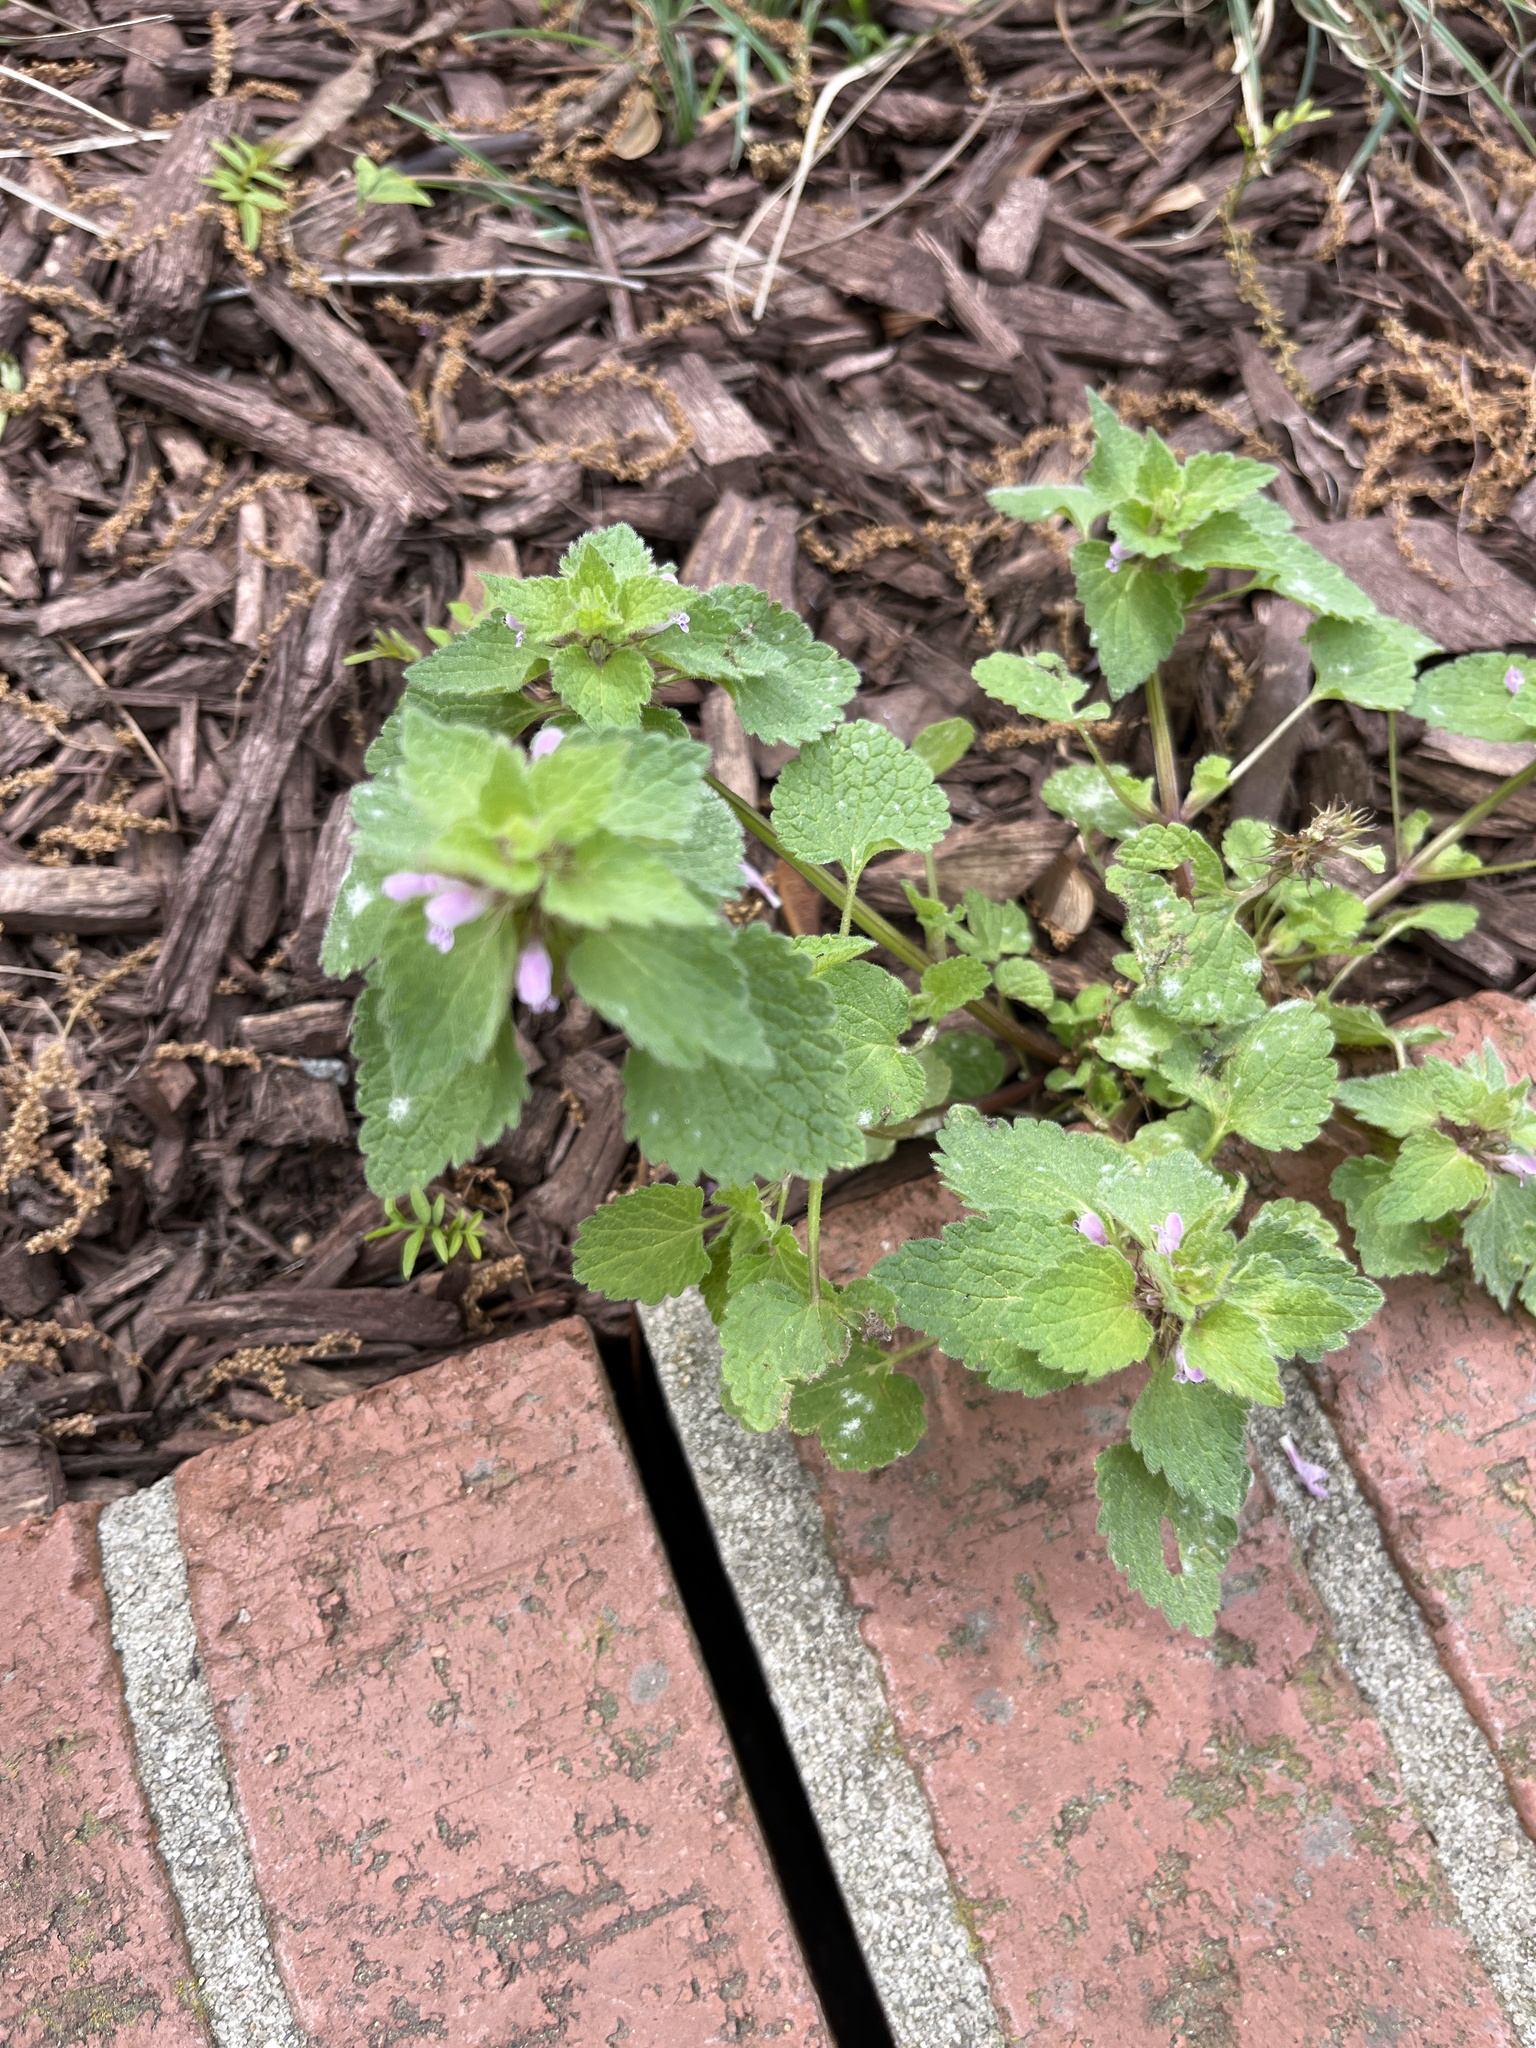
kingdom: Plantae
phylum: Tracheophyta
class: Magnoliopsida
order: Lamiales
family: Lamiaceae
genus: Lamium
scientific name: Lamium purpureum
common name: Red dead-nettle
